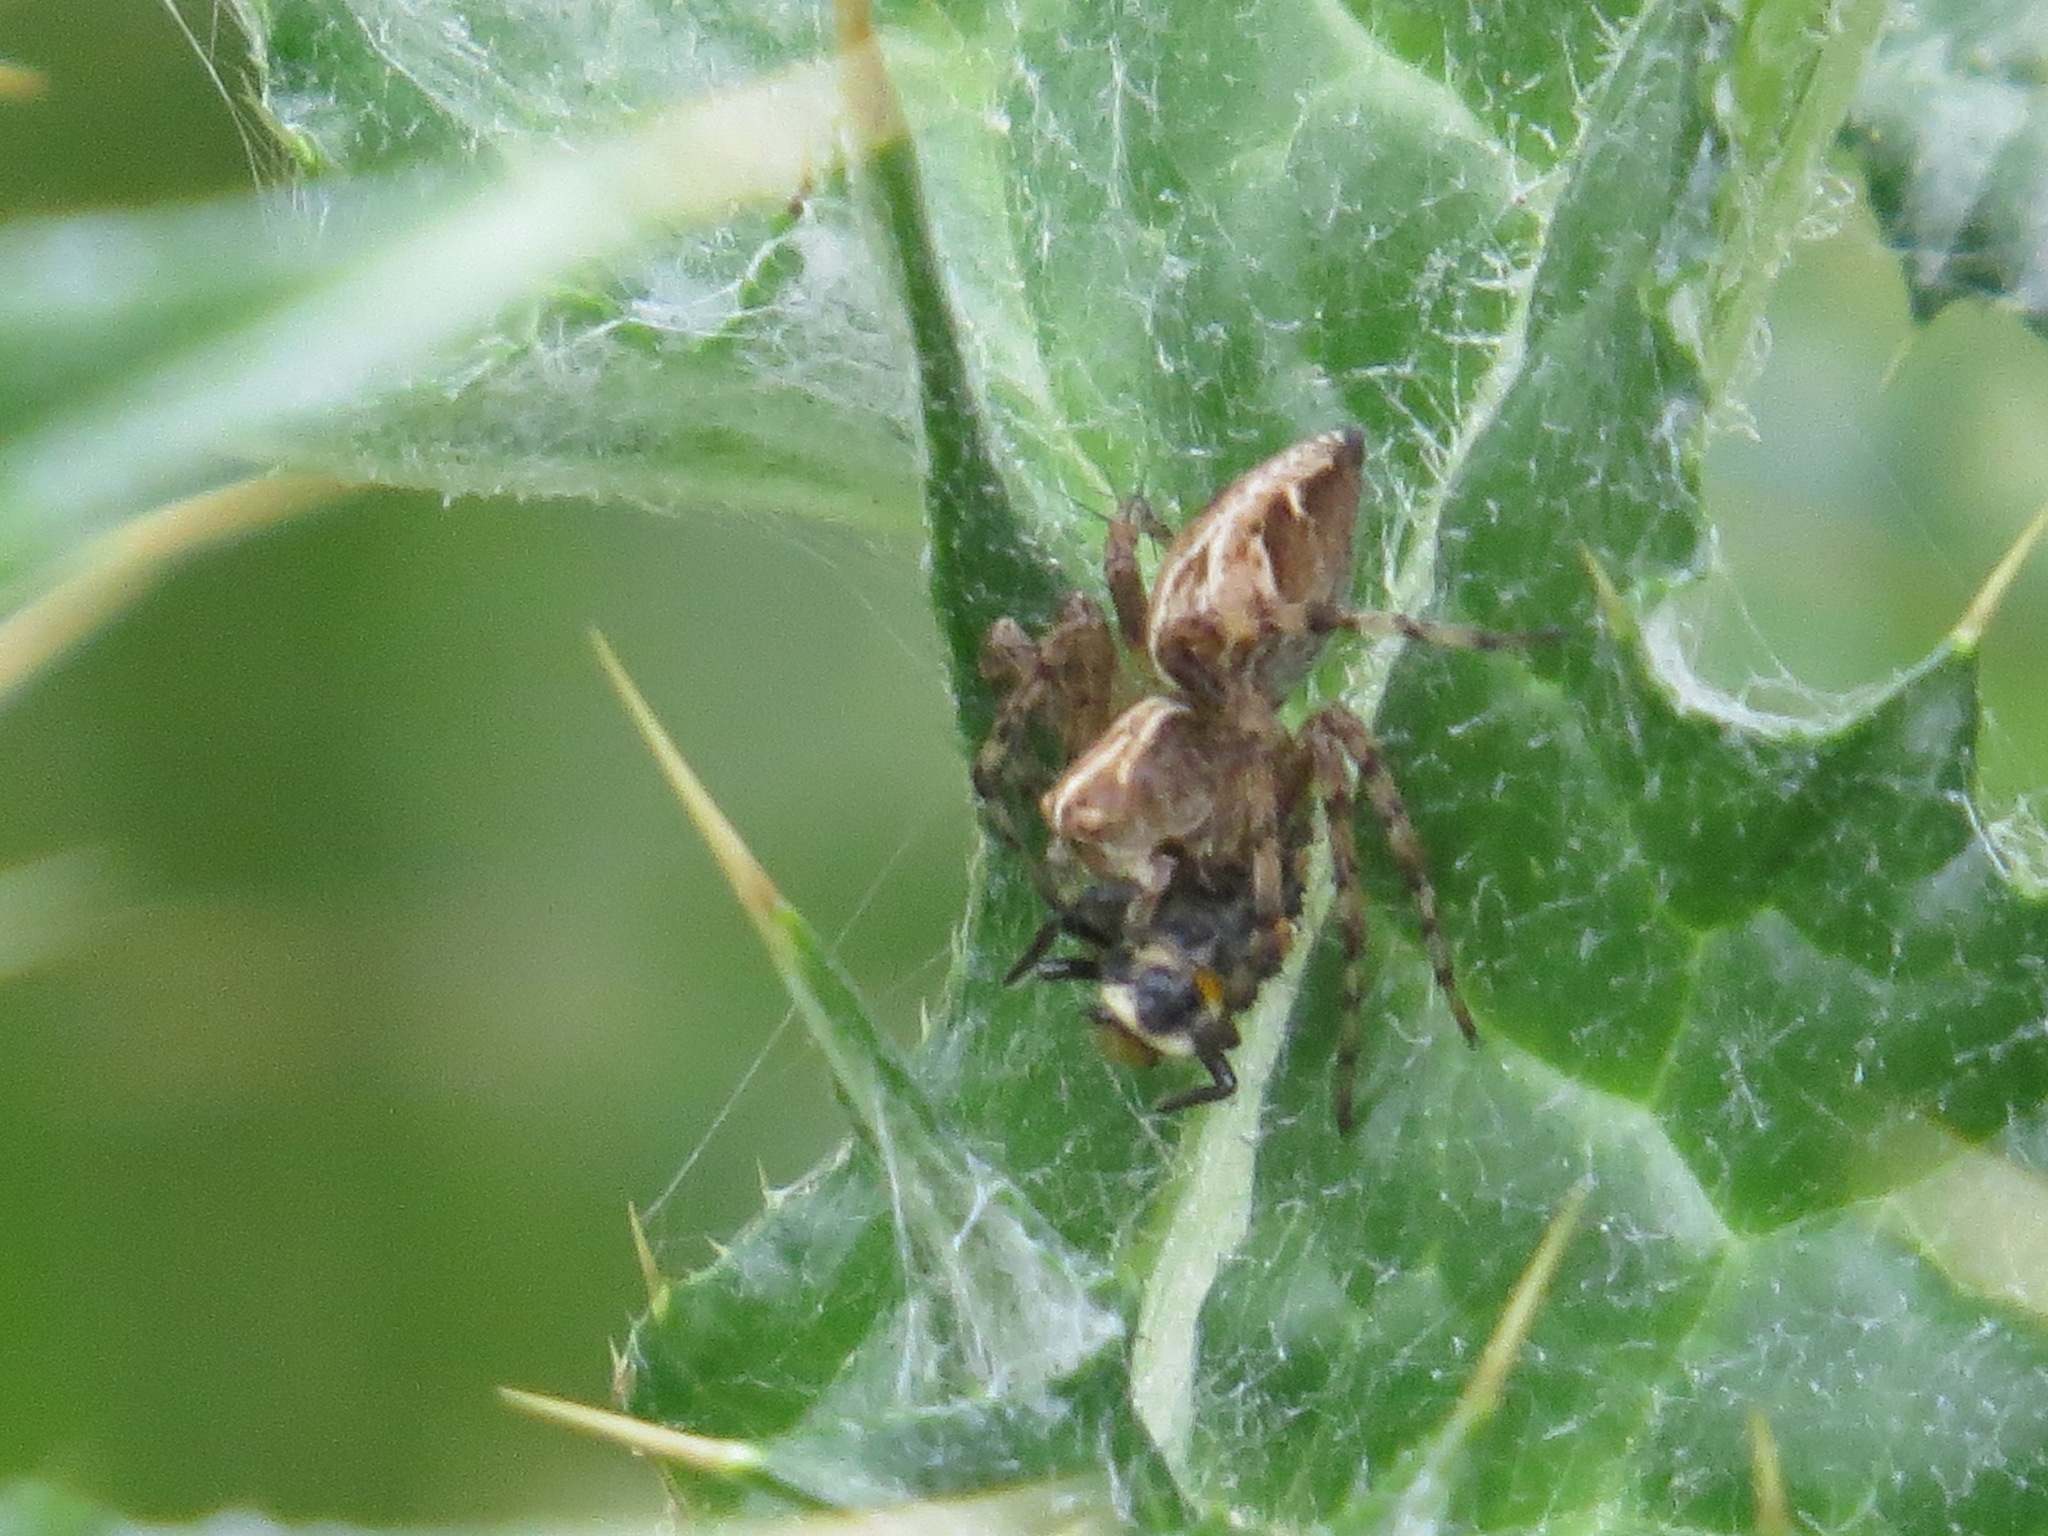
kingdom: Animalia
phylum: Arthropoda
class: Arachnida
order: Araneae
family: Oxyopidae
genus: Oxyopes
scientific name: Oxyopes scalaris
